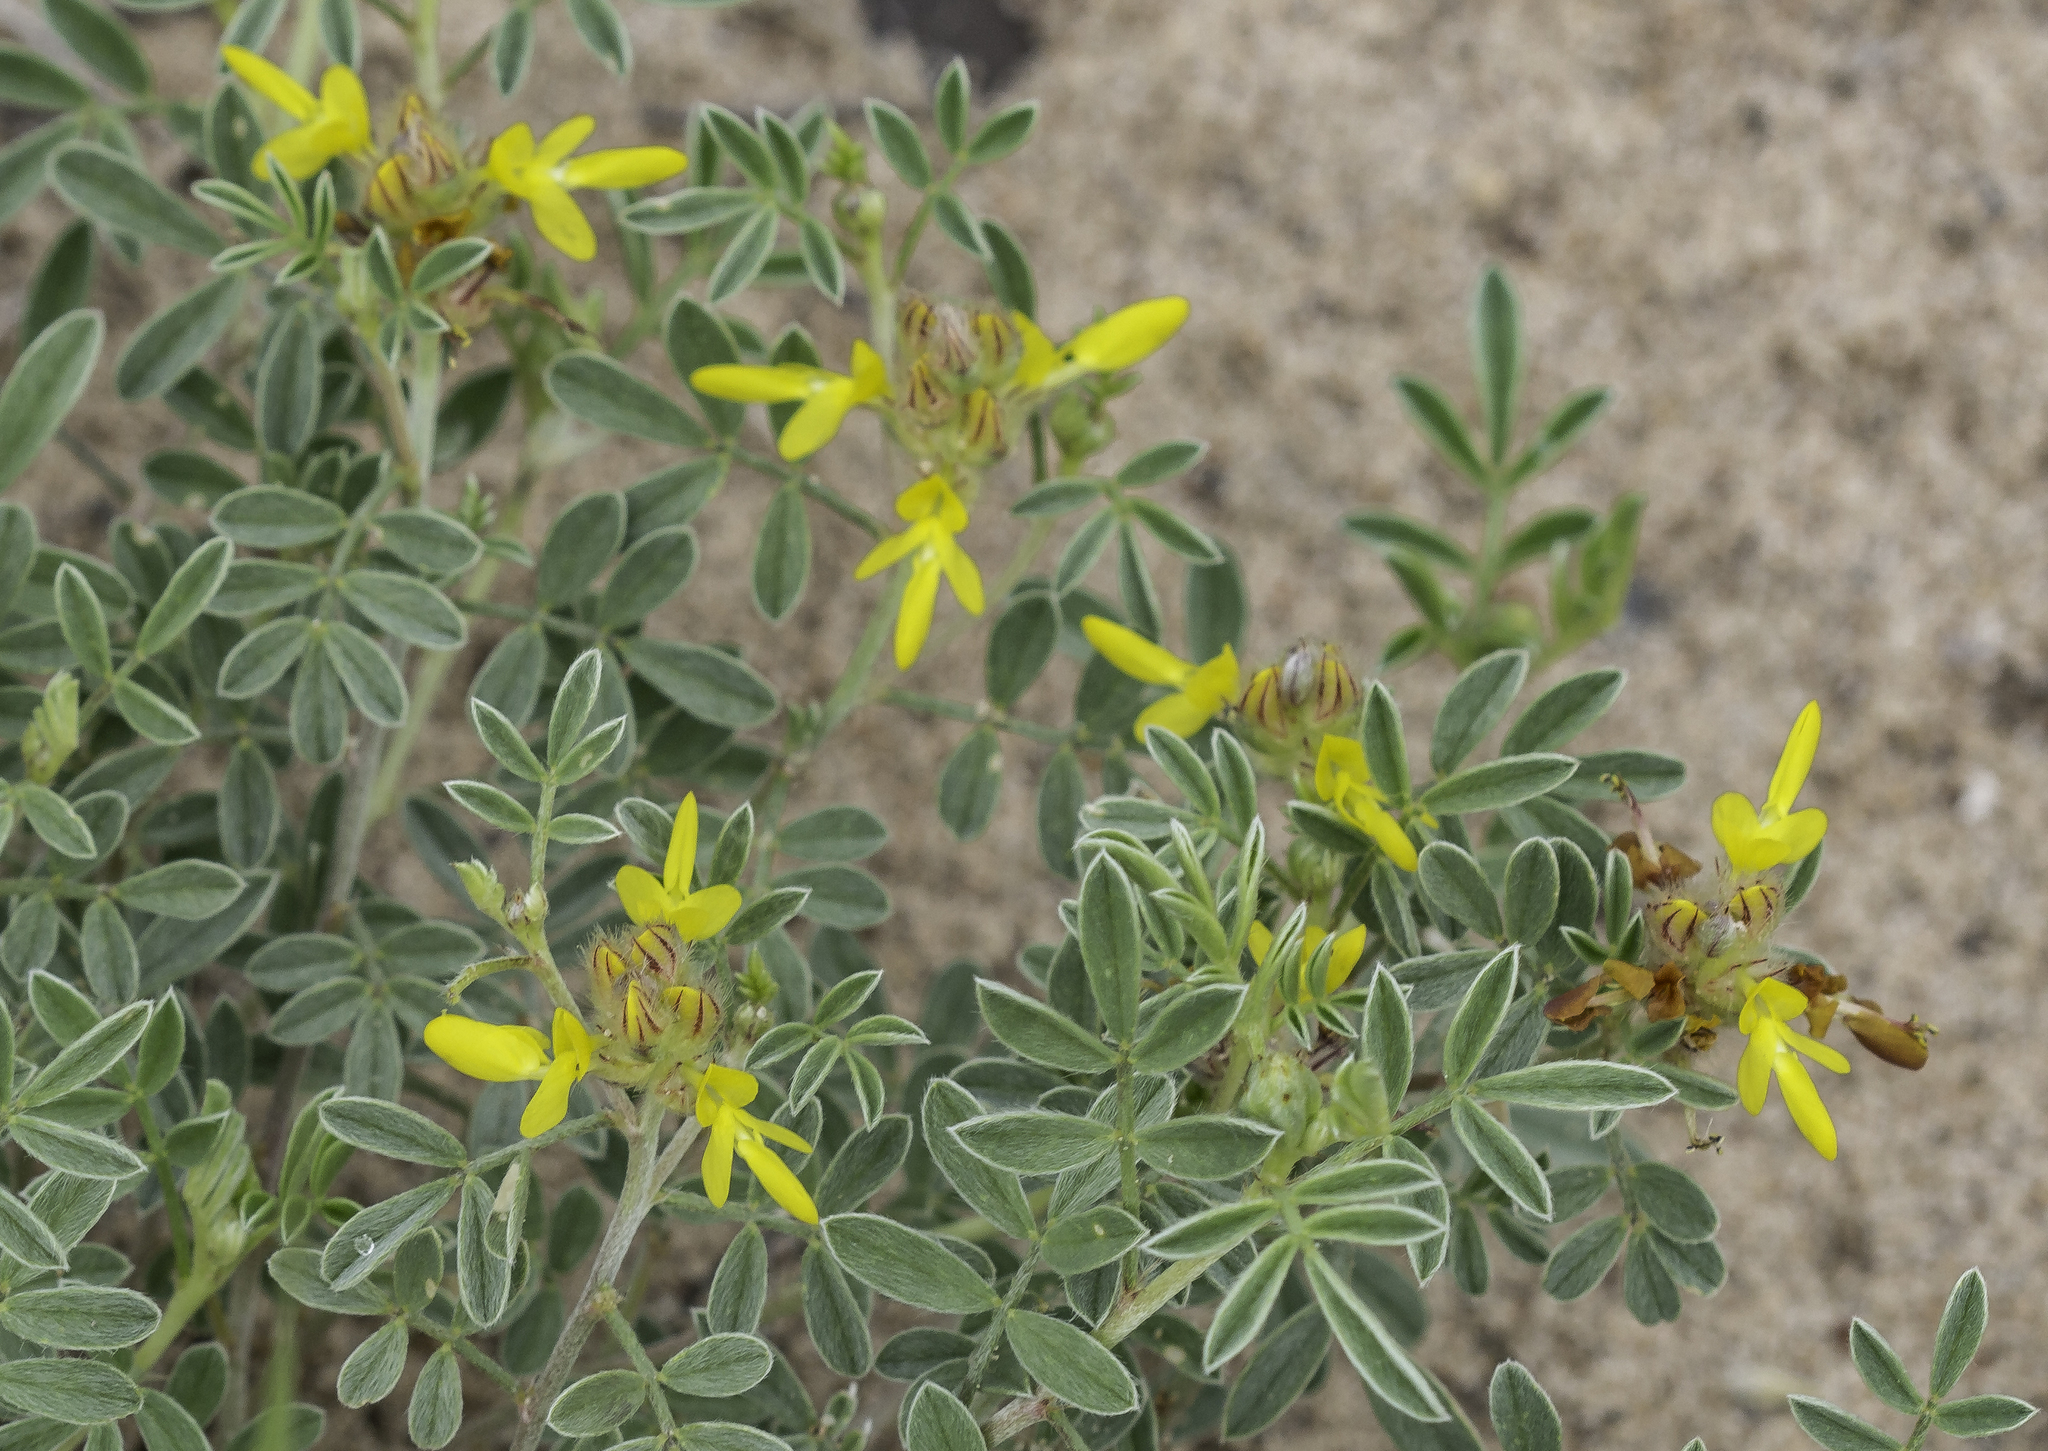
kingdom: Plantae
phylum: Tracheophyta
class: Magnoliopsida
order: Fabales
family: Fabaceae
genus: Dalea
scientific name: Dalea nana
